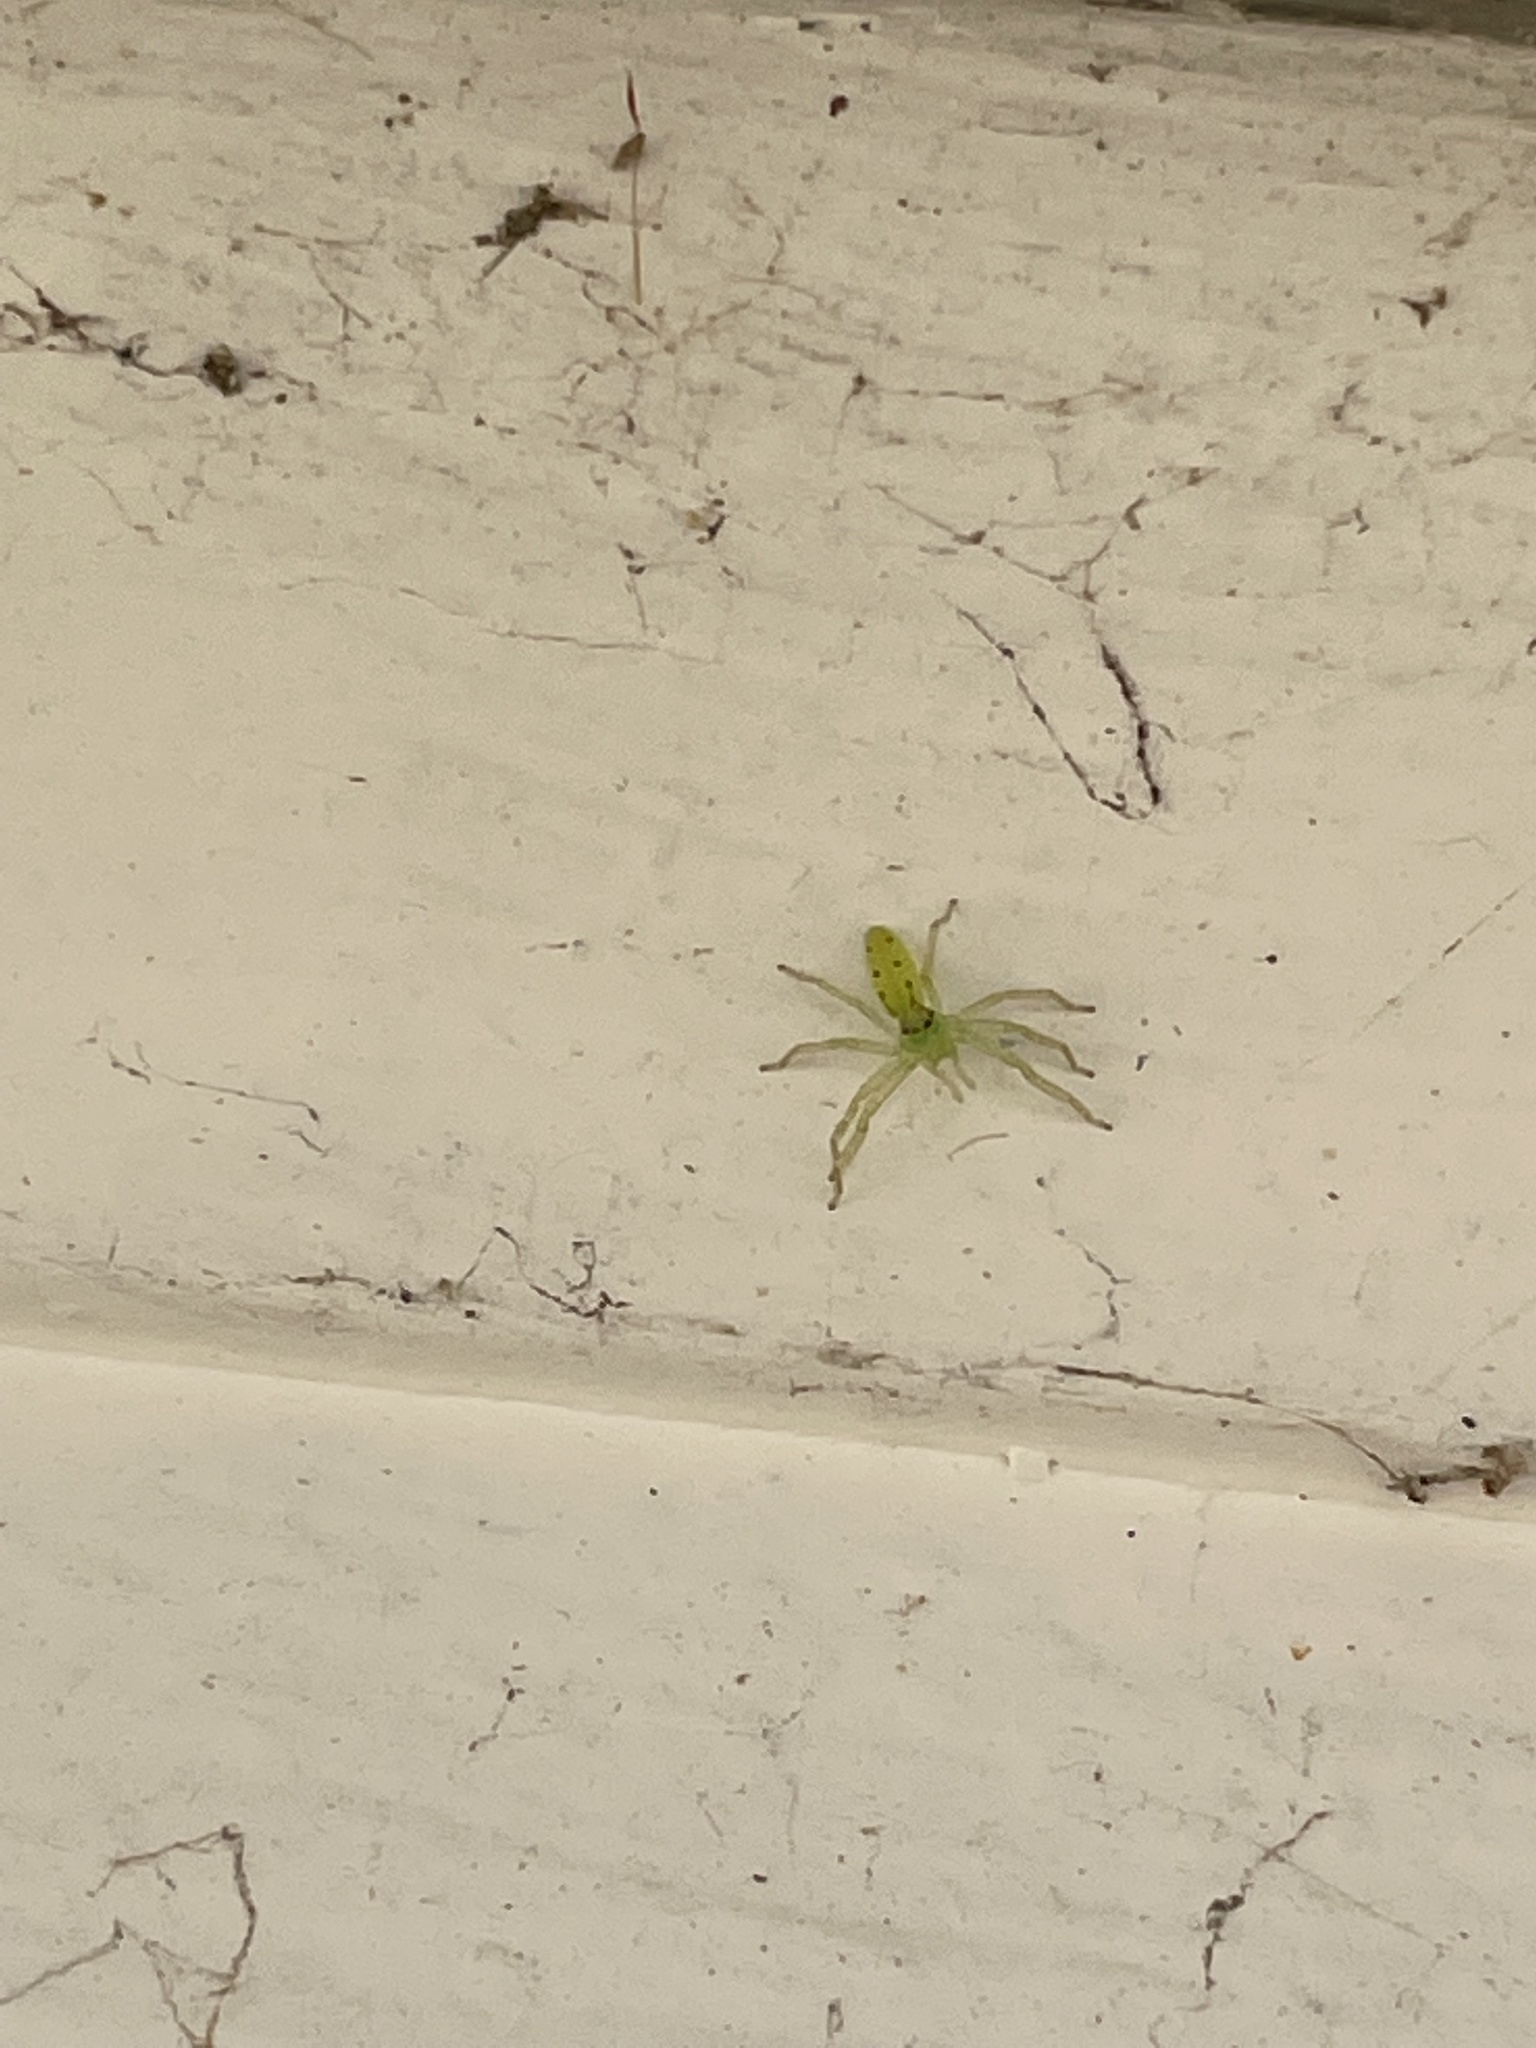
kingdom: Animalia
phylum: Arthropoda
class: Arachnida
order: Araneae
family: Salticidae
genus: Lyssomanes
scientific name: Lyssomanes viridis
